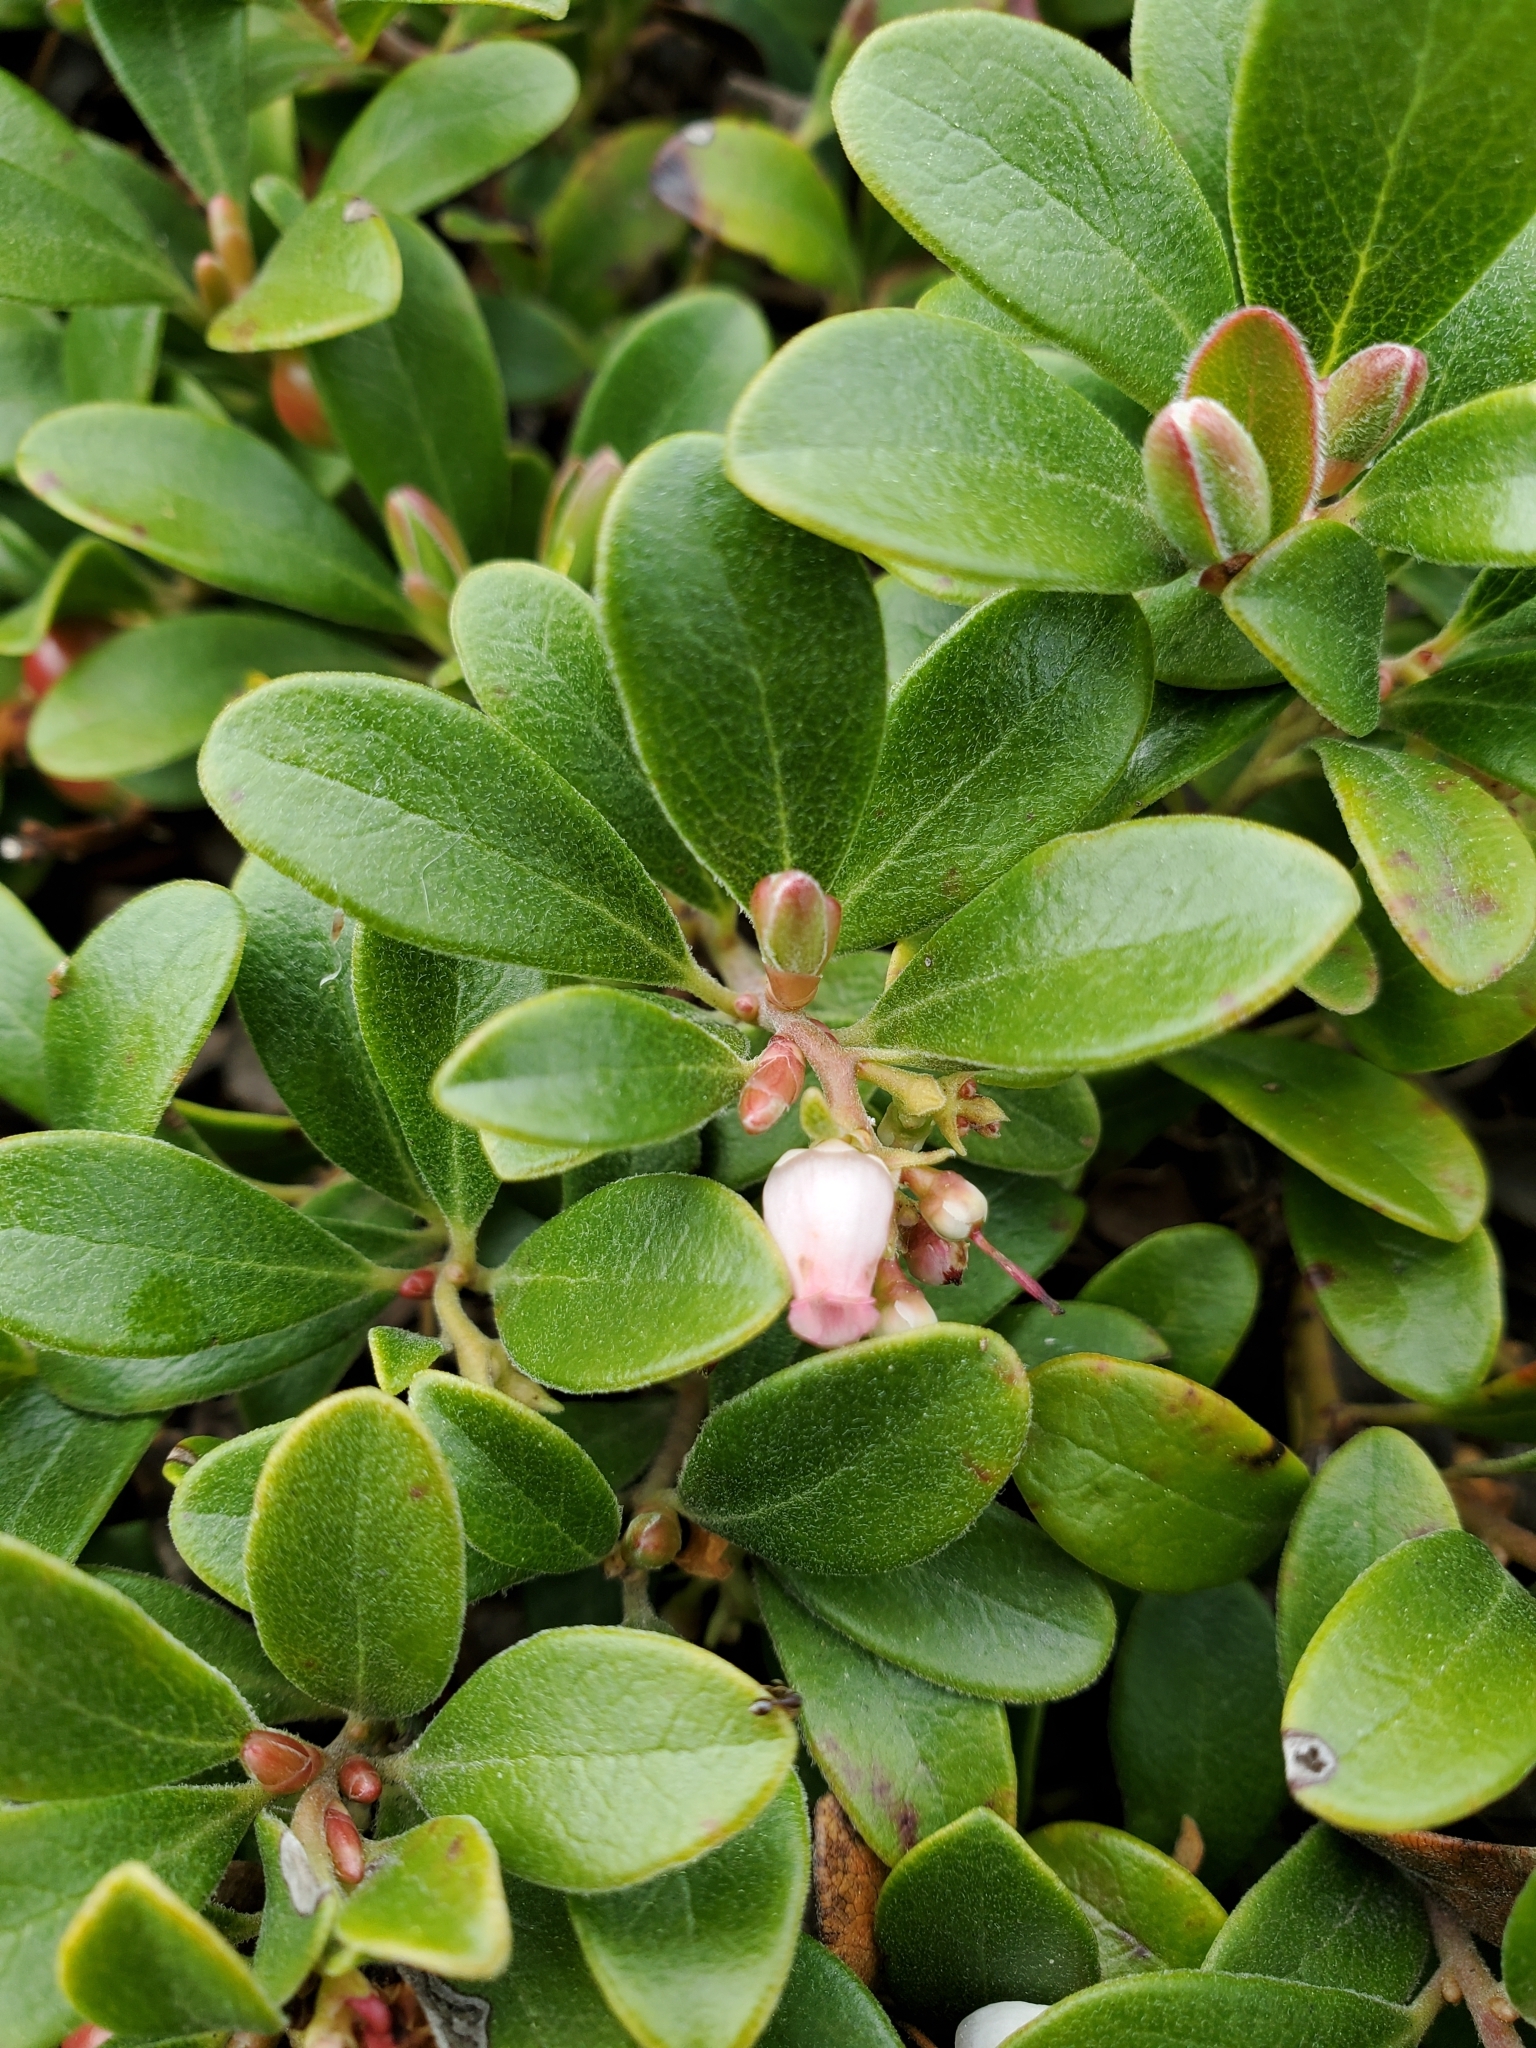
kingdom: Plantae
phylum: Tracheophyta
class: Magnoliopsida
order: Ericales
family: Ericaceae
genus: Arctostaphylos
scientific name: Arctostaphylos uva-ursi
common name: Bearberry
